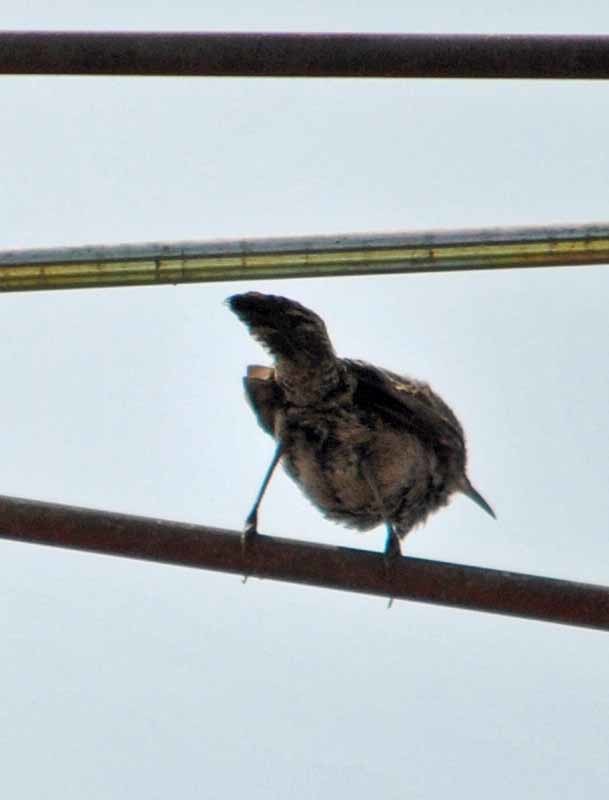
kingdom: Animalia
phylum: Chordata
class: Aves
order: Passeriformes
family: Troglodytidae
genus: Thryomanes
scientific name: Thryomanes bewickii
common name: Bewick's wren
